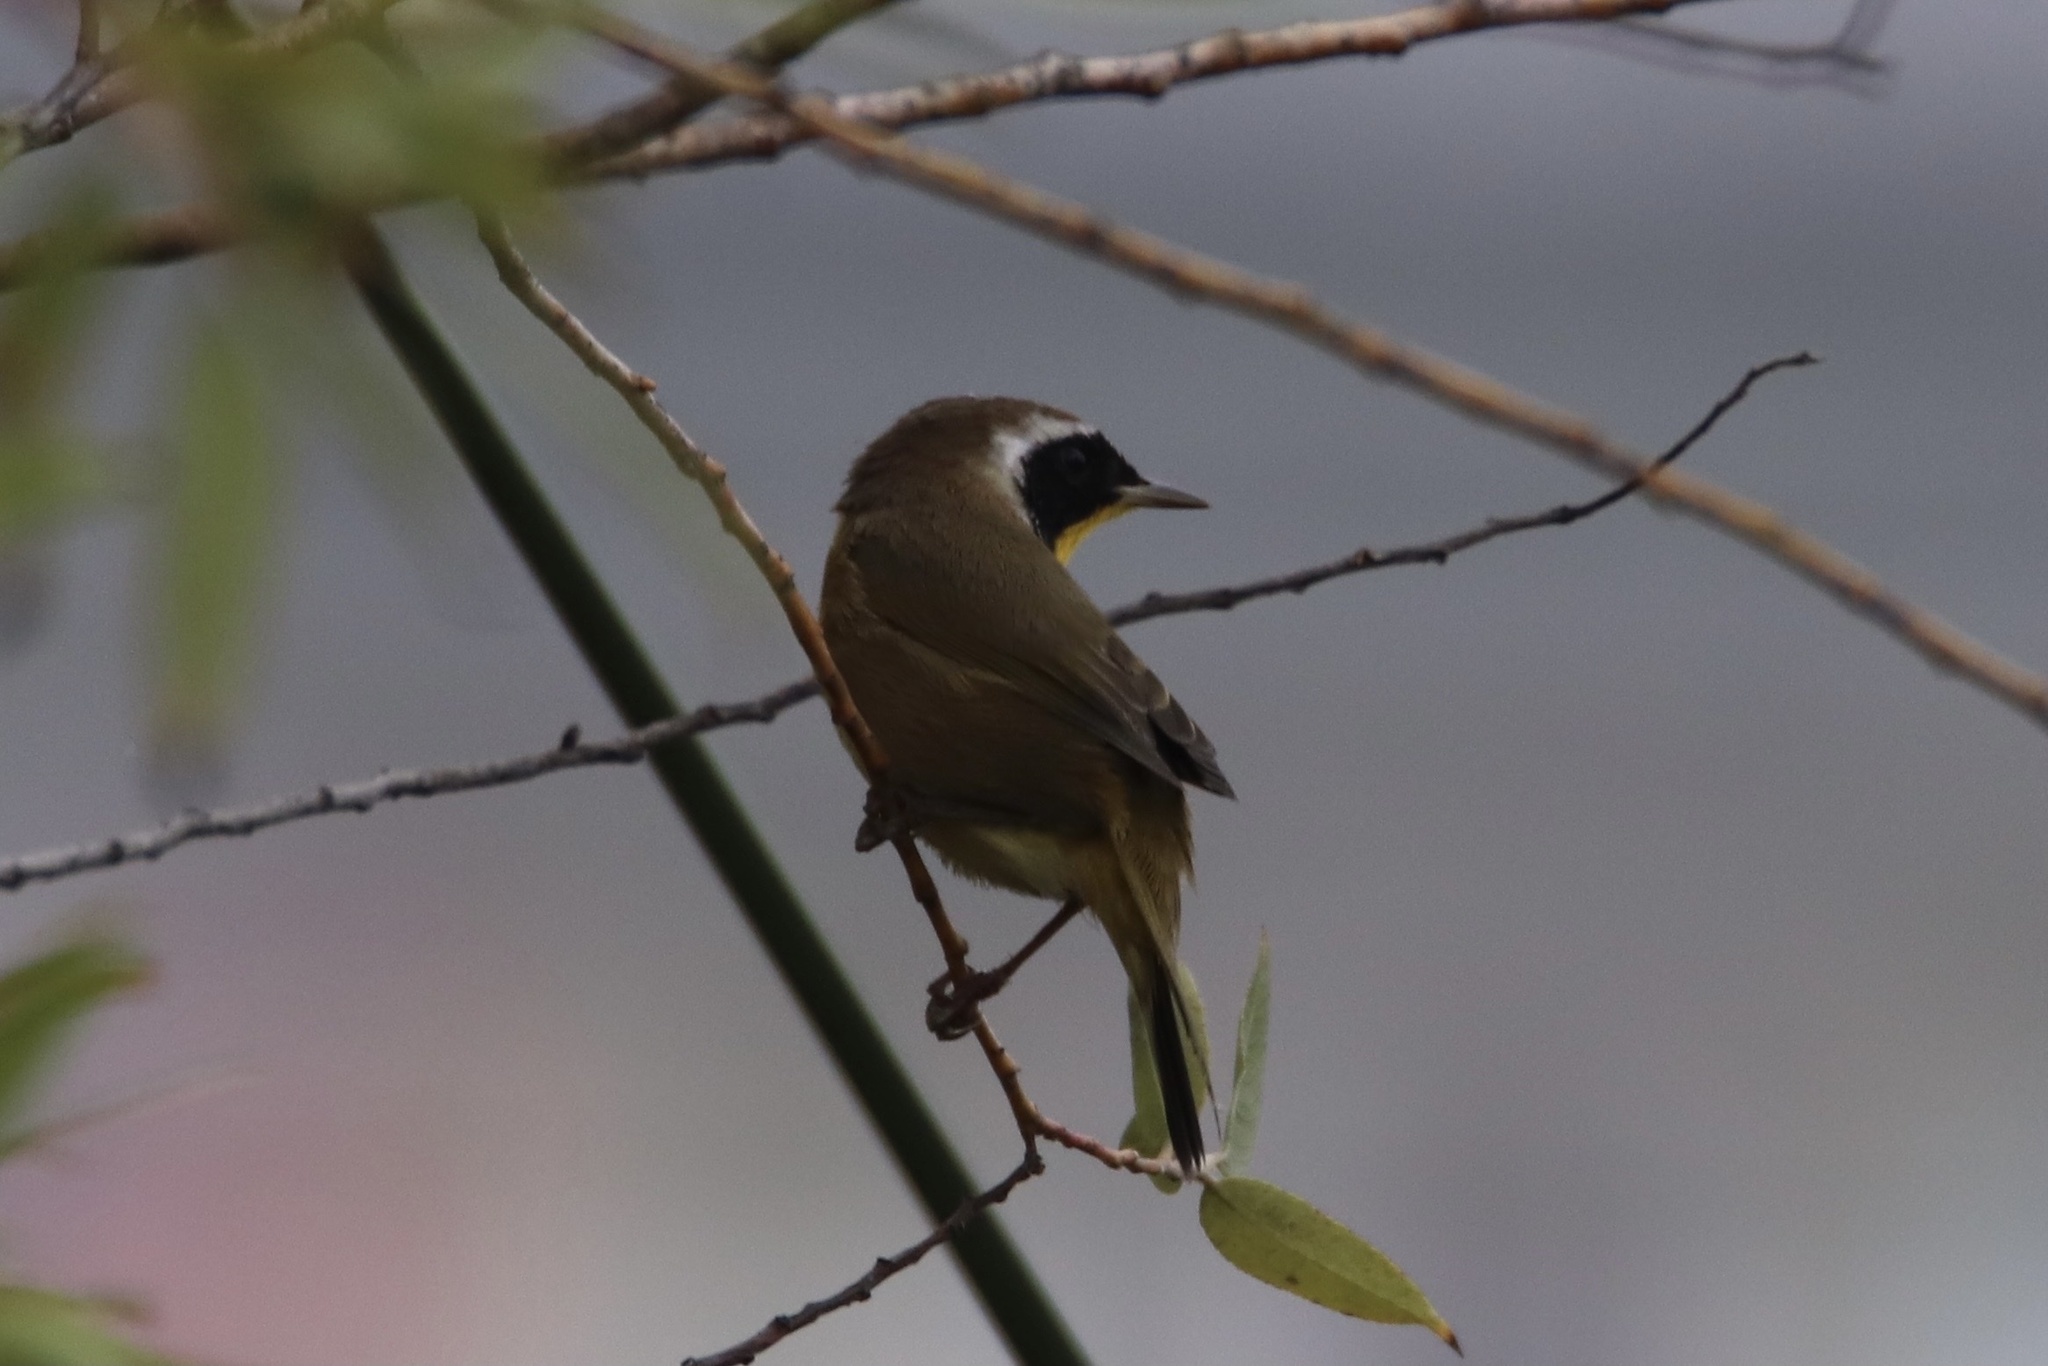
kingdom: Animalia
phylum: Chordata
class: Aves
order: Passeriformes
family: Parulidae
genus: Geothlypis
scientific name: Geothlypis trichas
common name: Common yellowthroat
